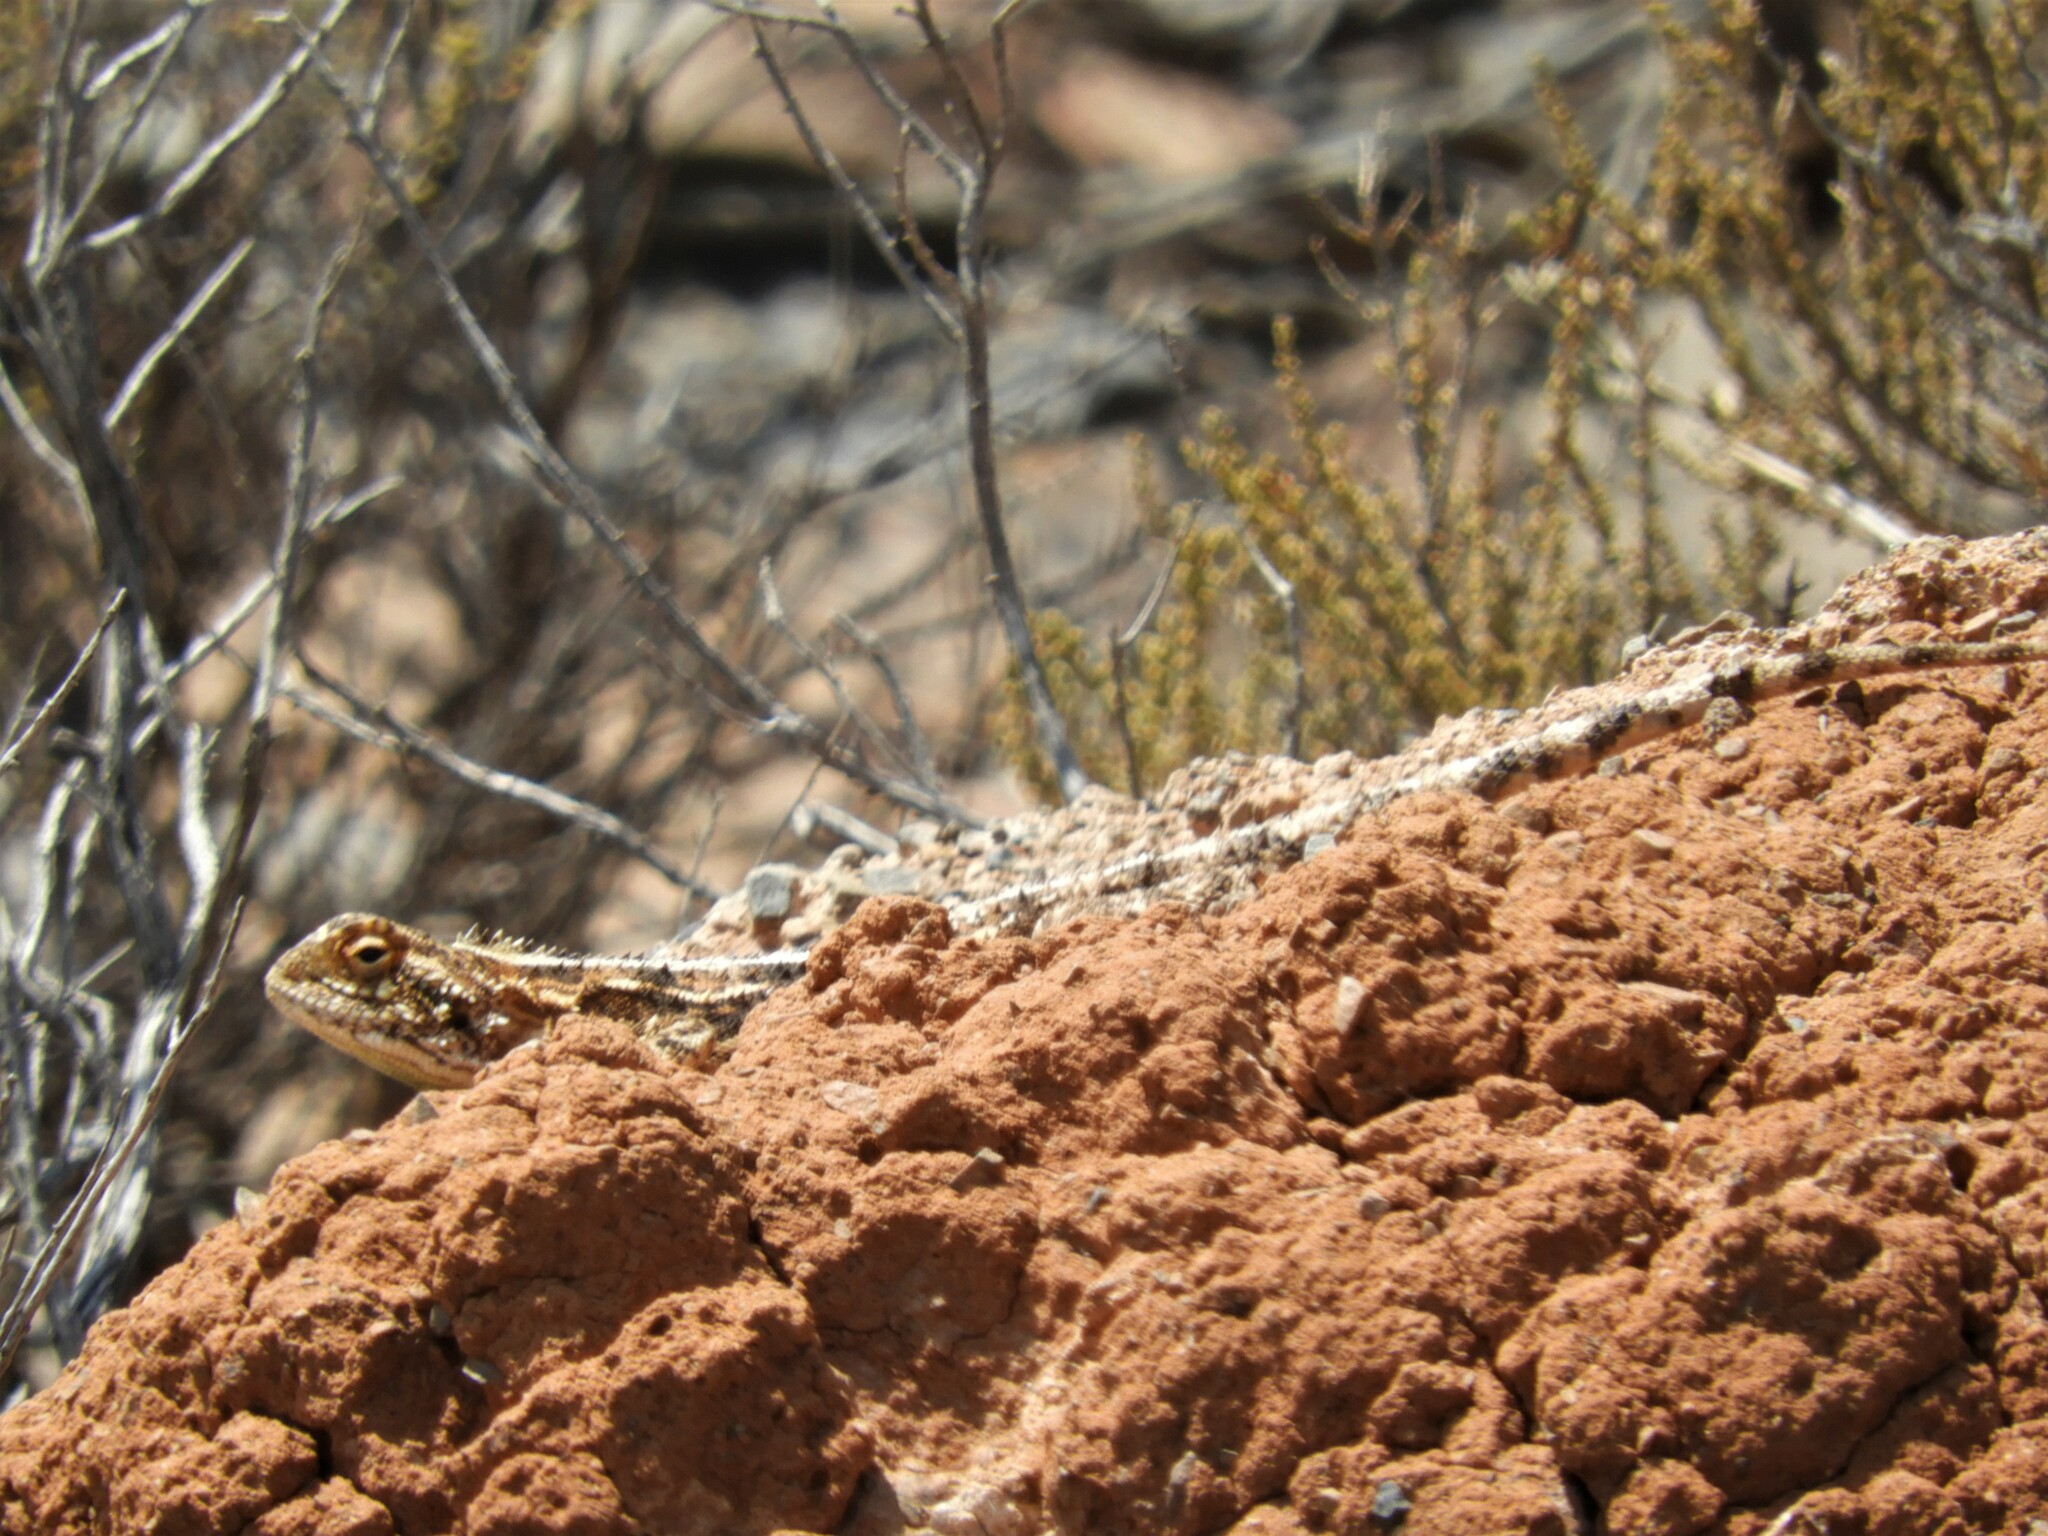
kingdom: Animalia
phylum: Chordata
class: Squamata
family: Agamidae
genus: Agama
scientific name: Agama aculeata
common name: Common ground agama
